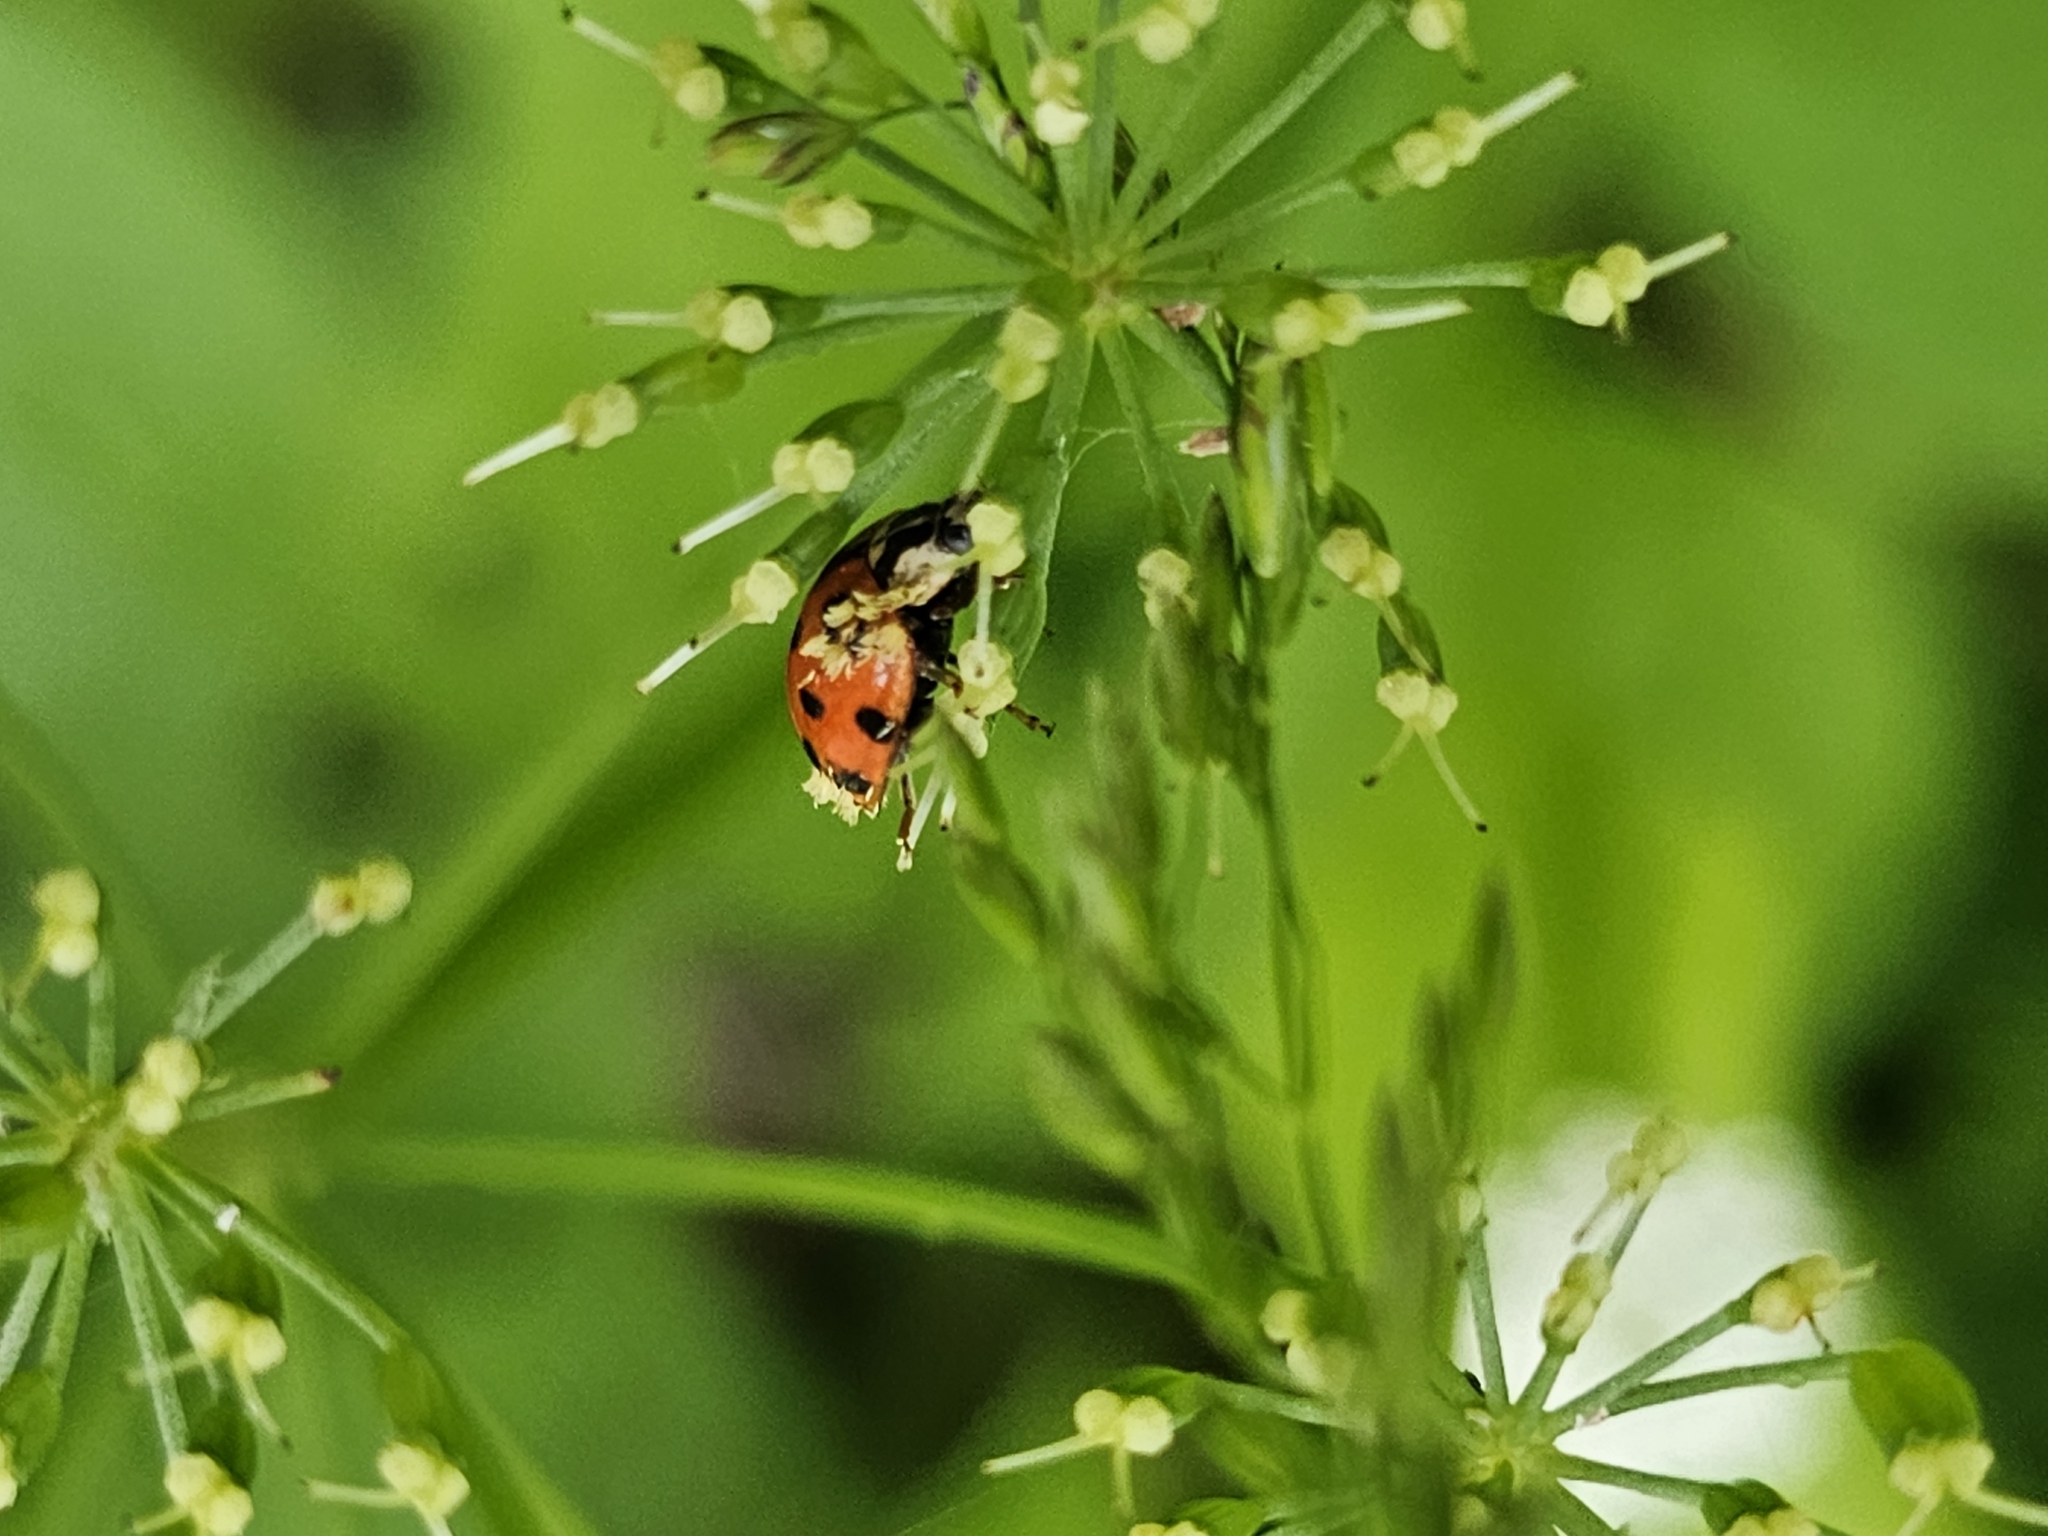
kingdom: Fungi
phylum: Ascomycota
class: Laboulbeniomycetes
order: Laboulbeniales
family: Laboulbeniaceae
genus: Hesperomyces
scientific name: Hesperomyces harmoniae
